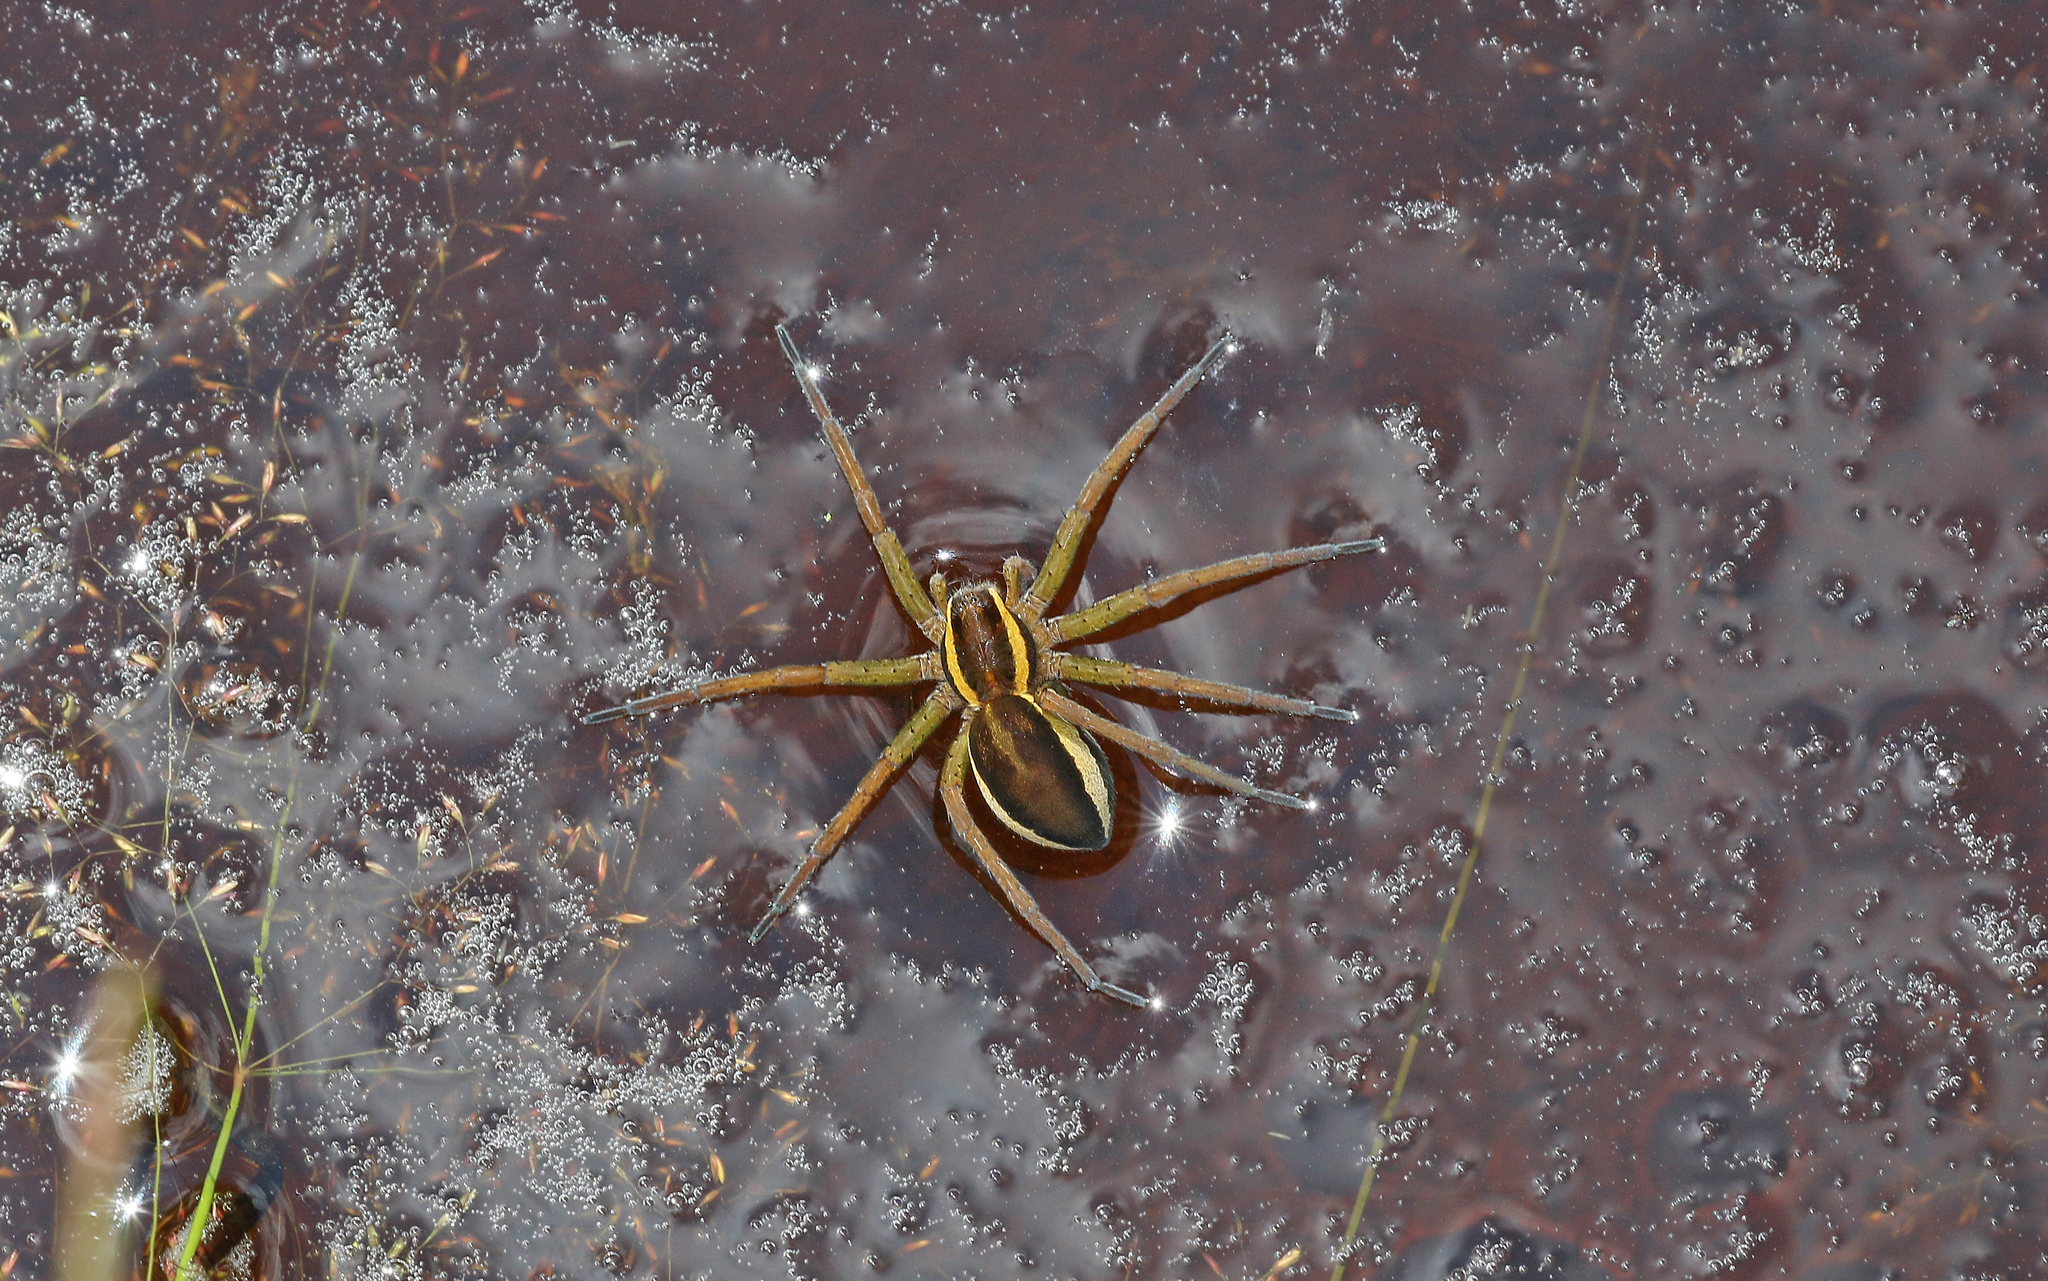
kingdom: Animalia
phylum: Arthropoda
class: Arachnida
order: Araneae
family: Pisauridae
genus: Dolomedes
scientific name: Dolomedes fimbriatus
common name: Raft spider
